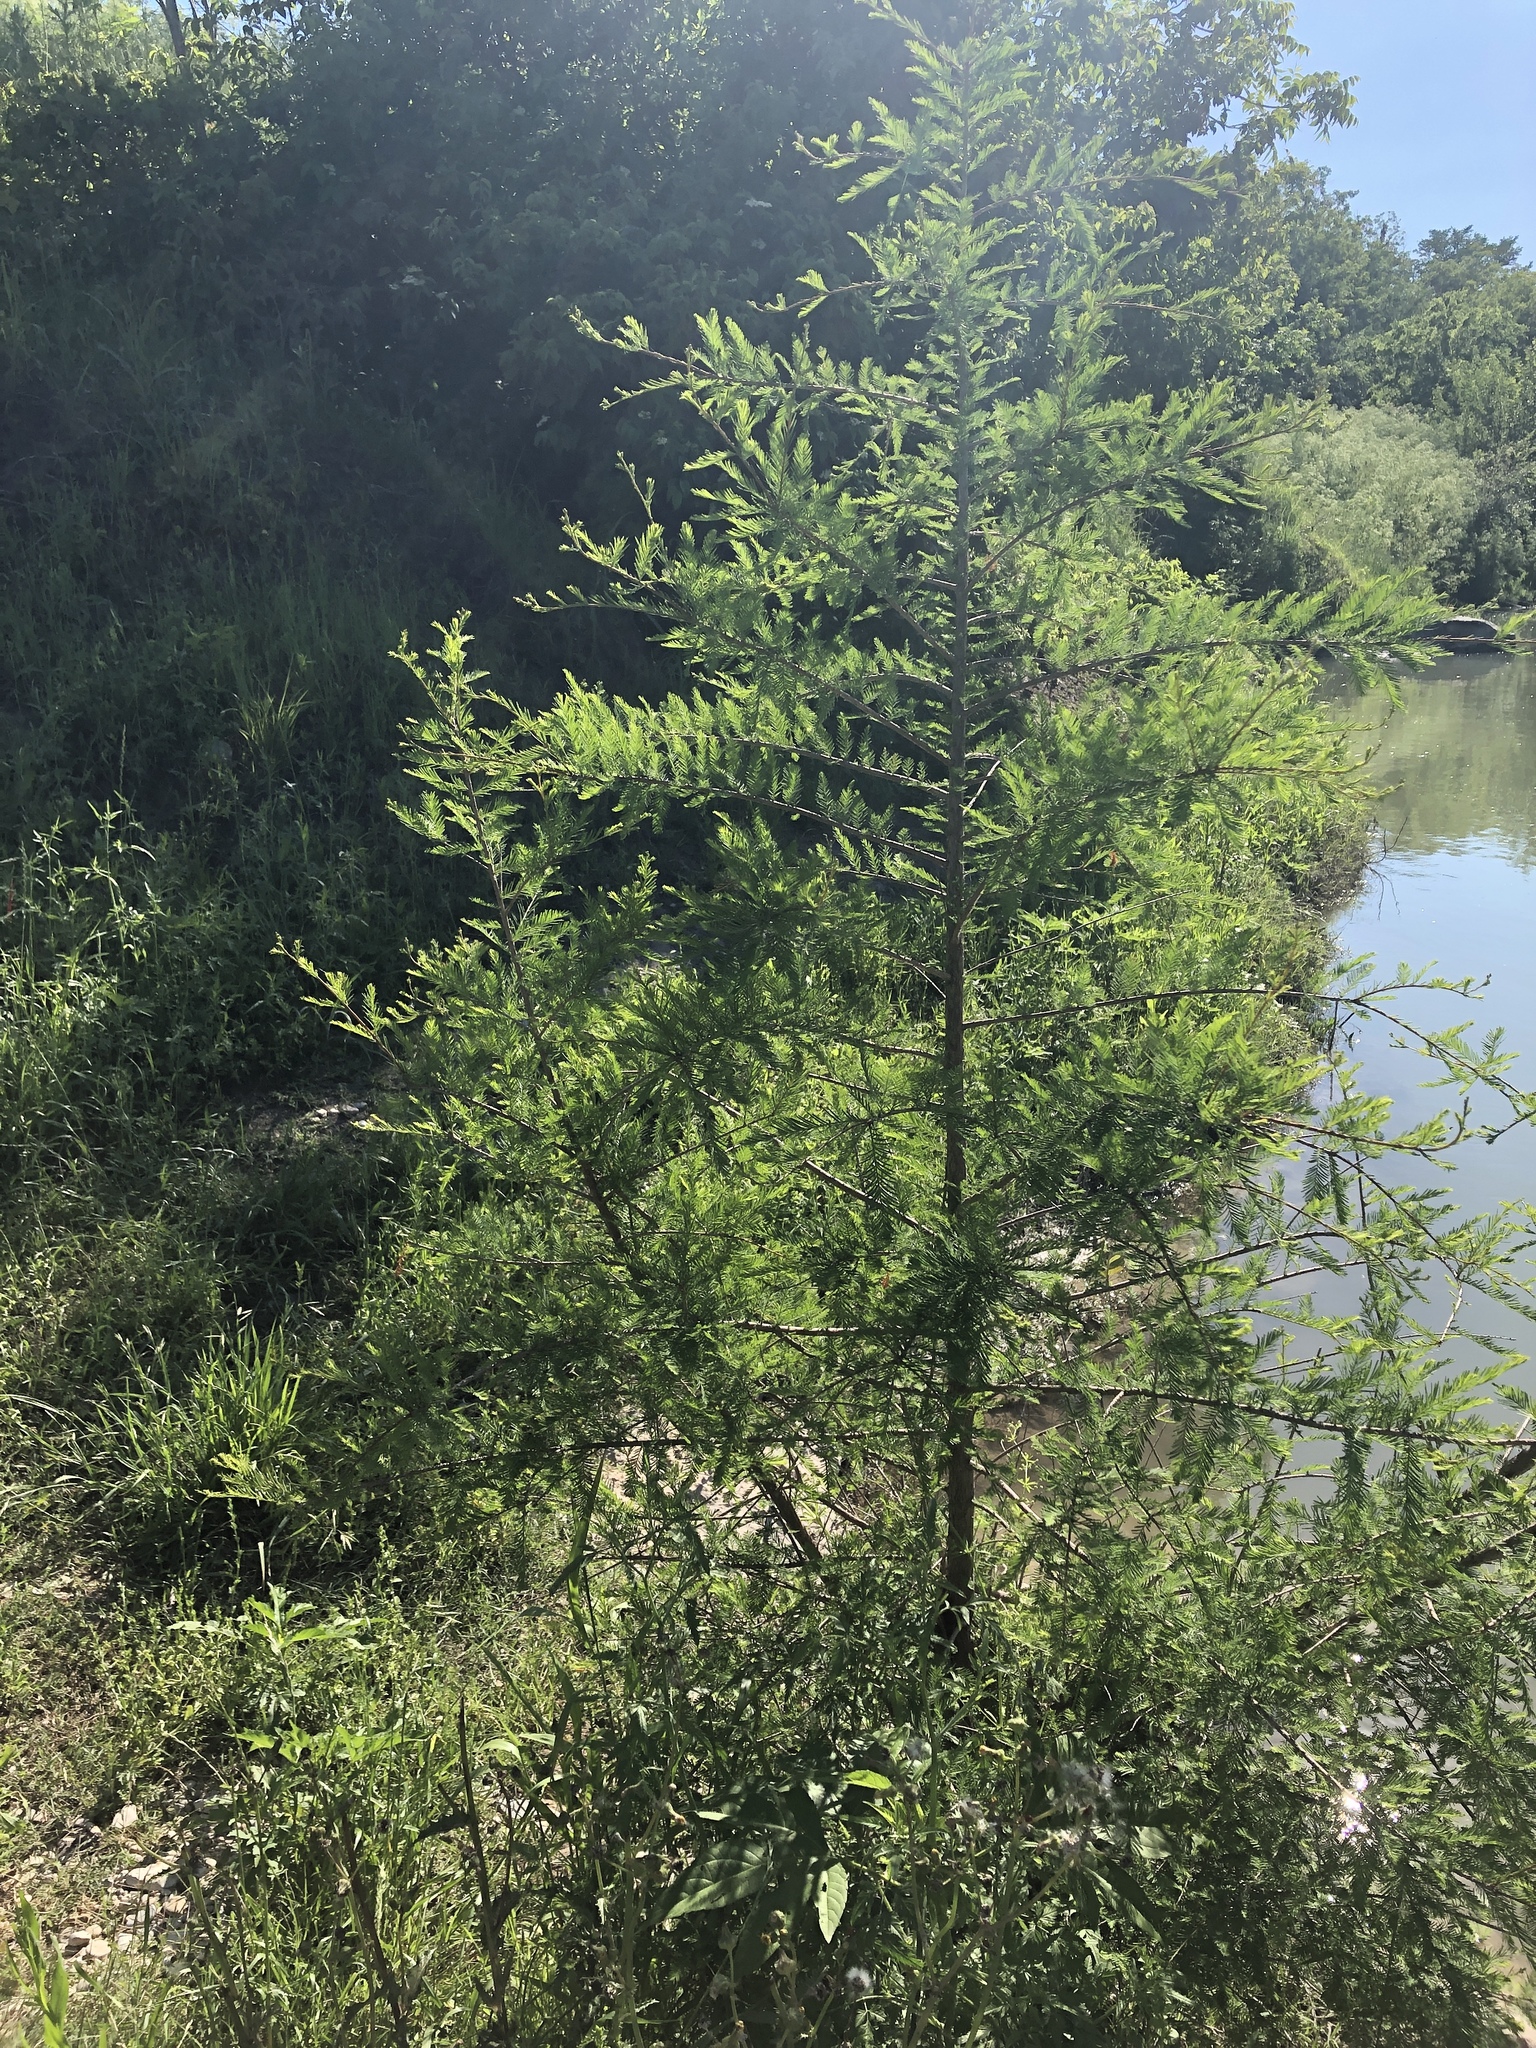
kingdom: Plantae
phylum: Tracheophyta
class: Pinopsida
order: Pinales
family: Cupressaceae
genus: Taxodium
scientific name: Taxodium distichum
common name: Bald cypress
